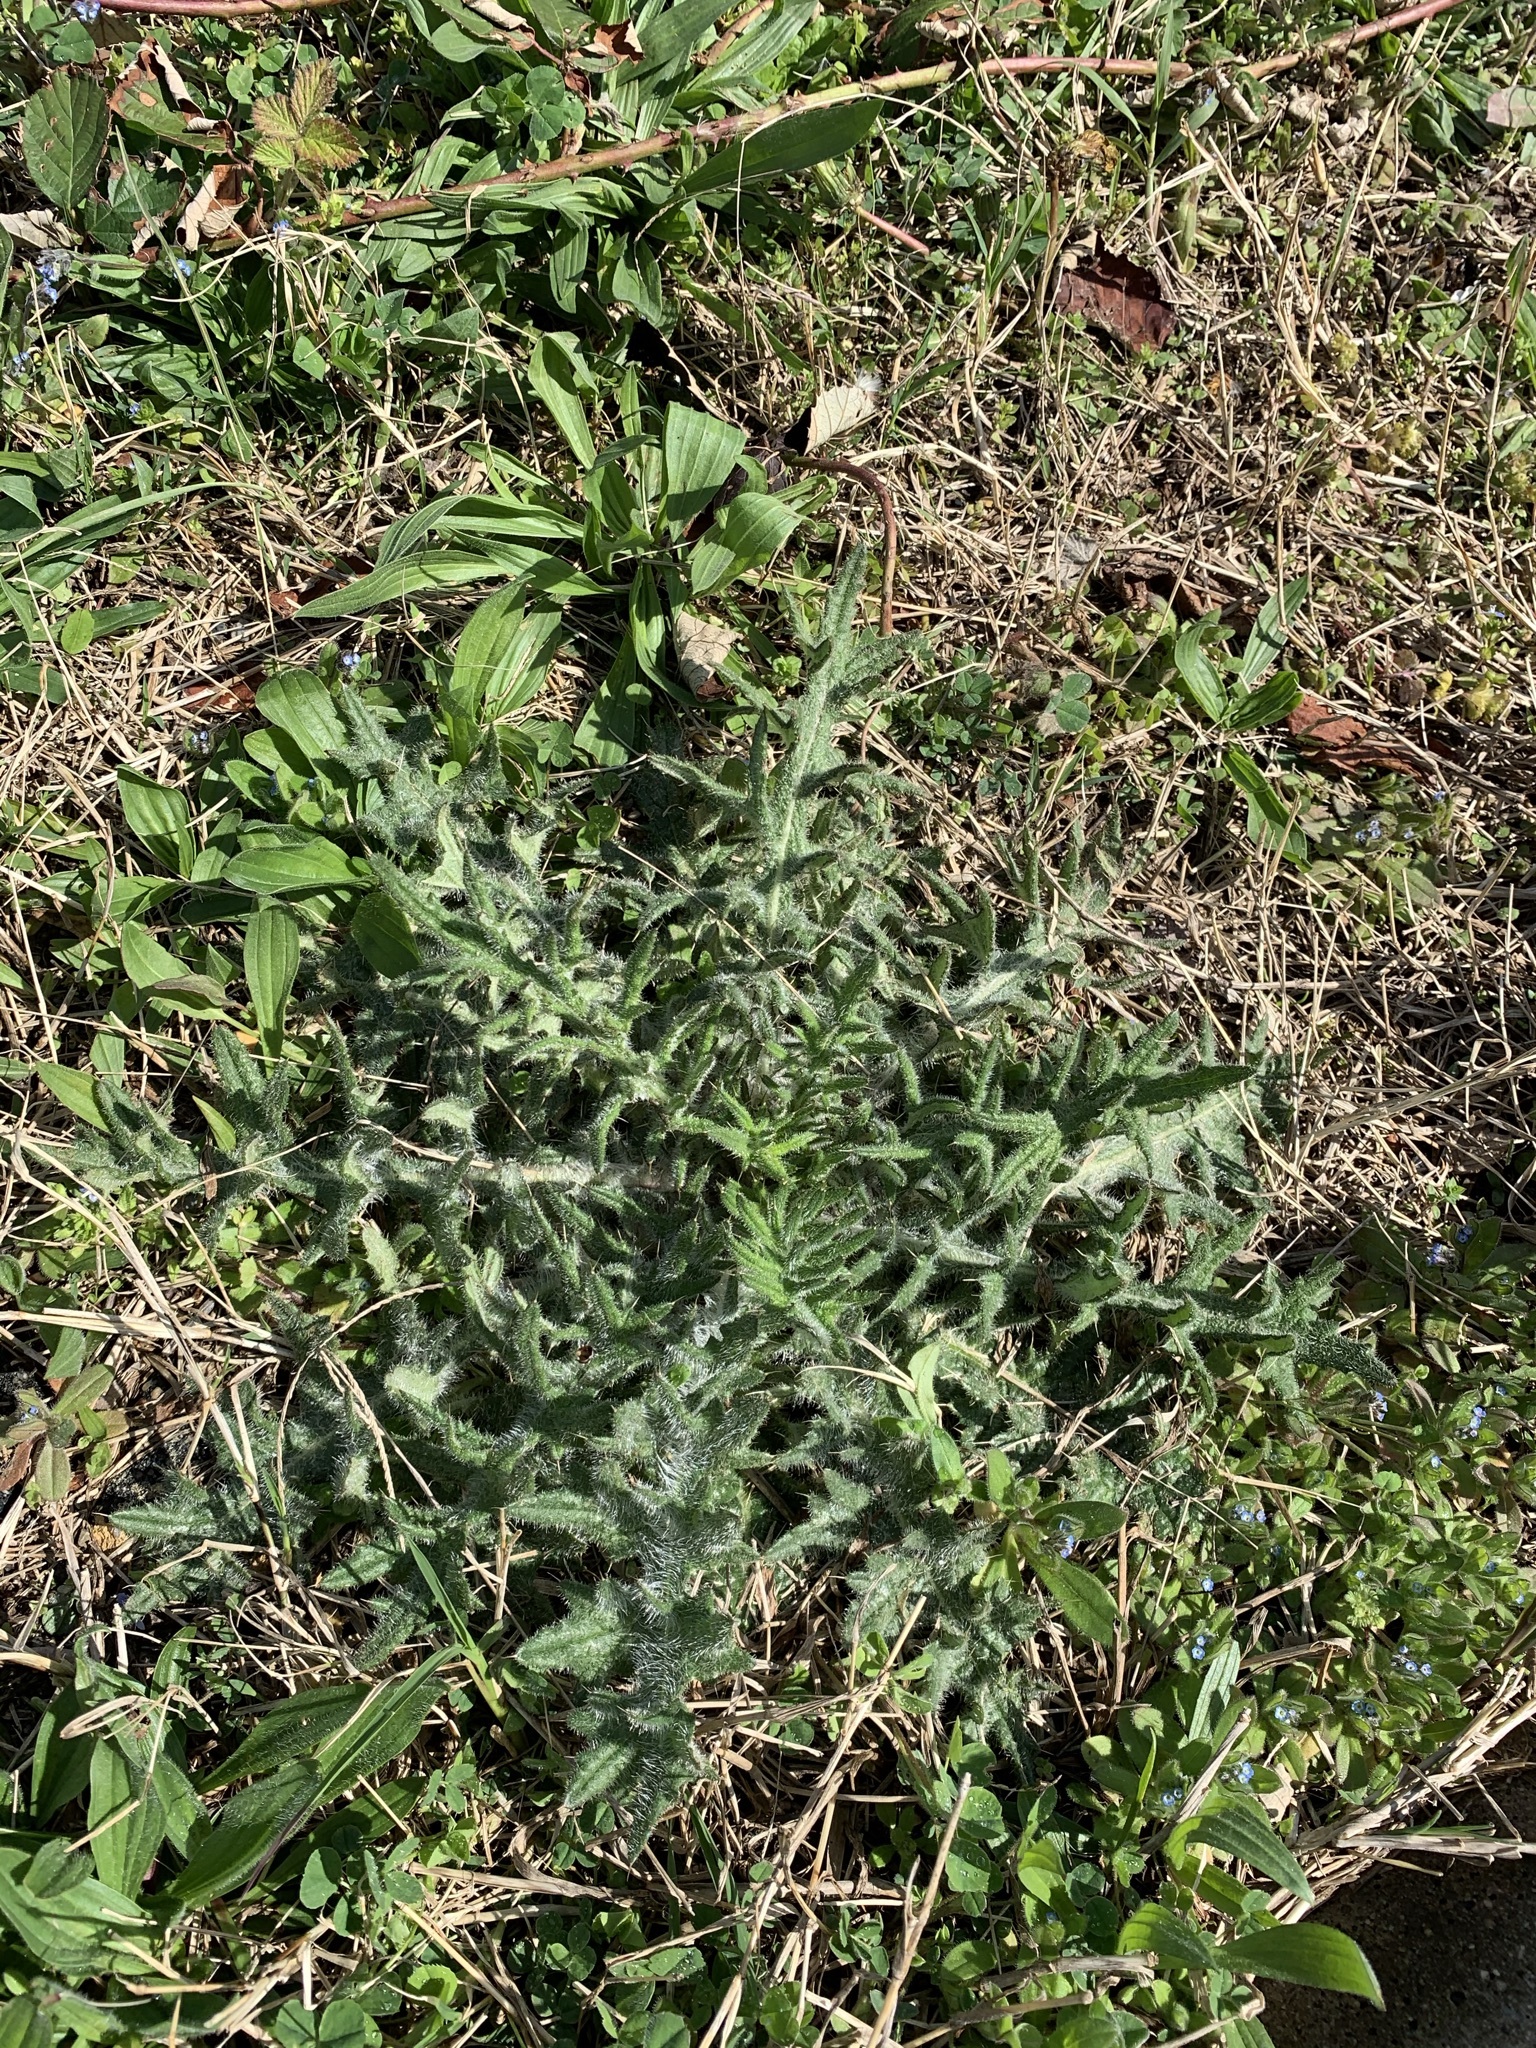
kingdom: Plantae
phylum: Tracheophyta
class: Magnoliopsida
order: Asterales
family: Asteraceae
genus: Cirsium
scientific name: Cirsium vulgare
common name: Bull thistle
